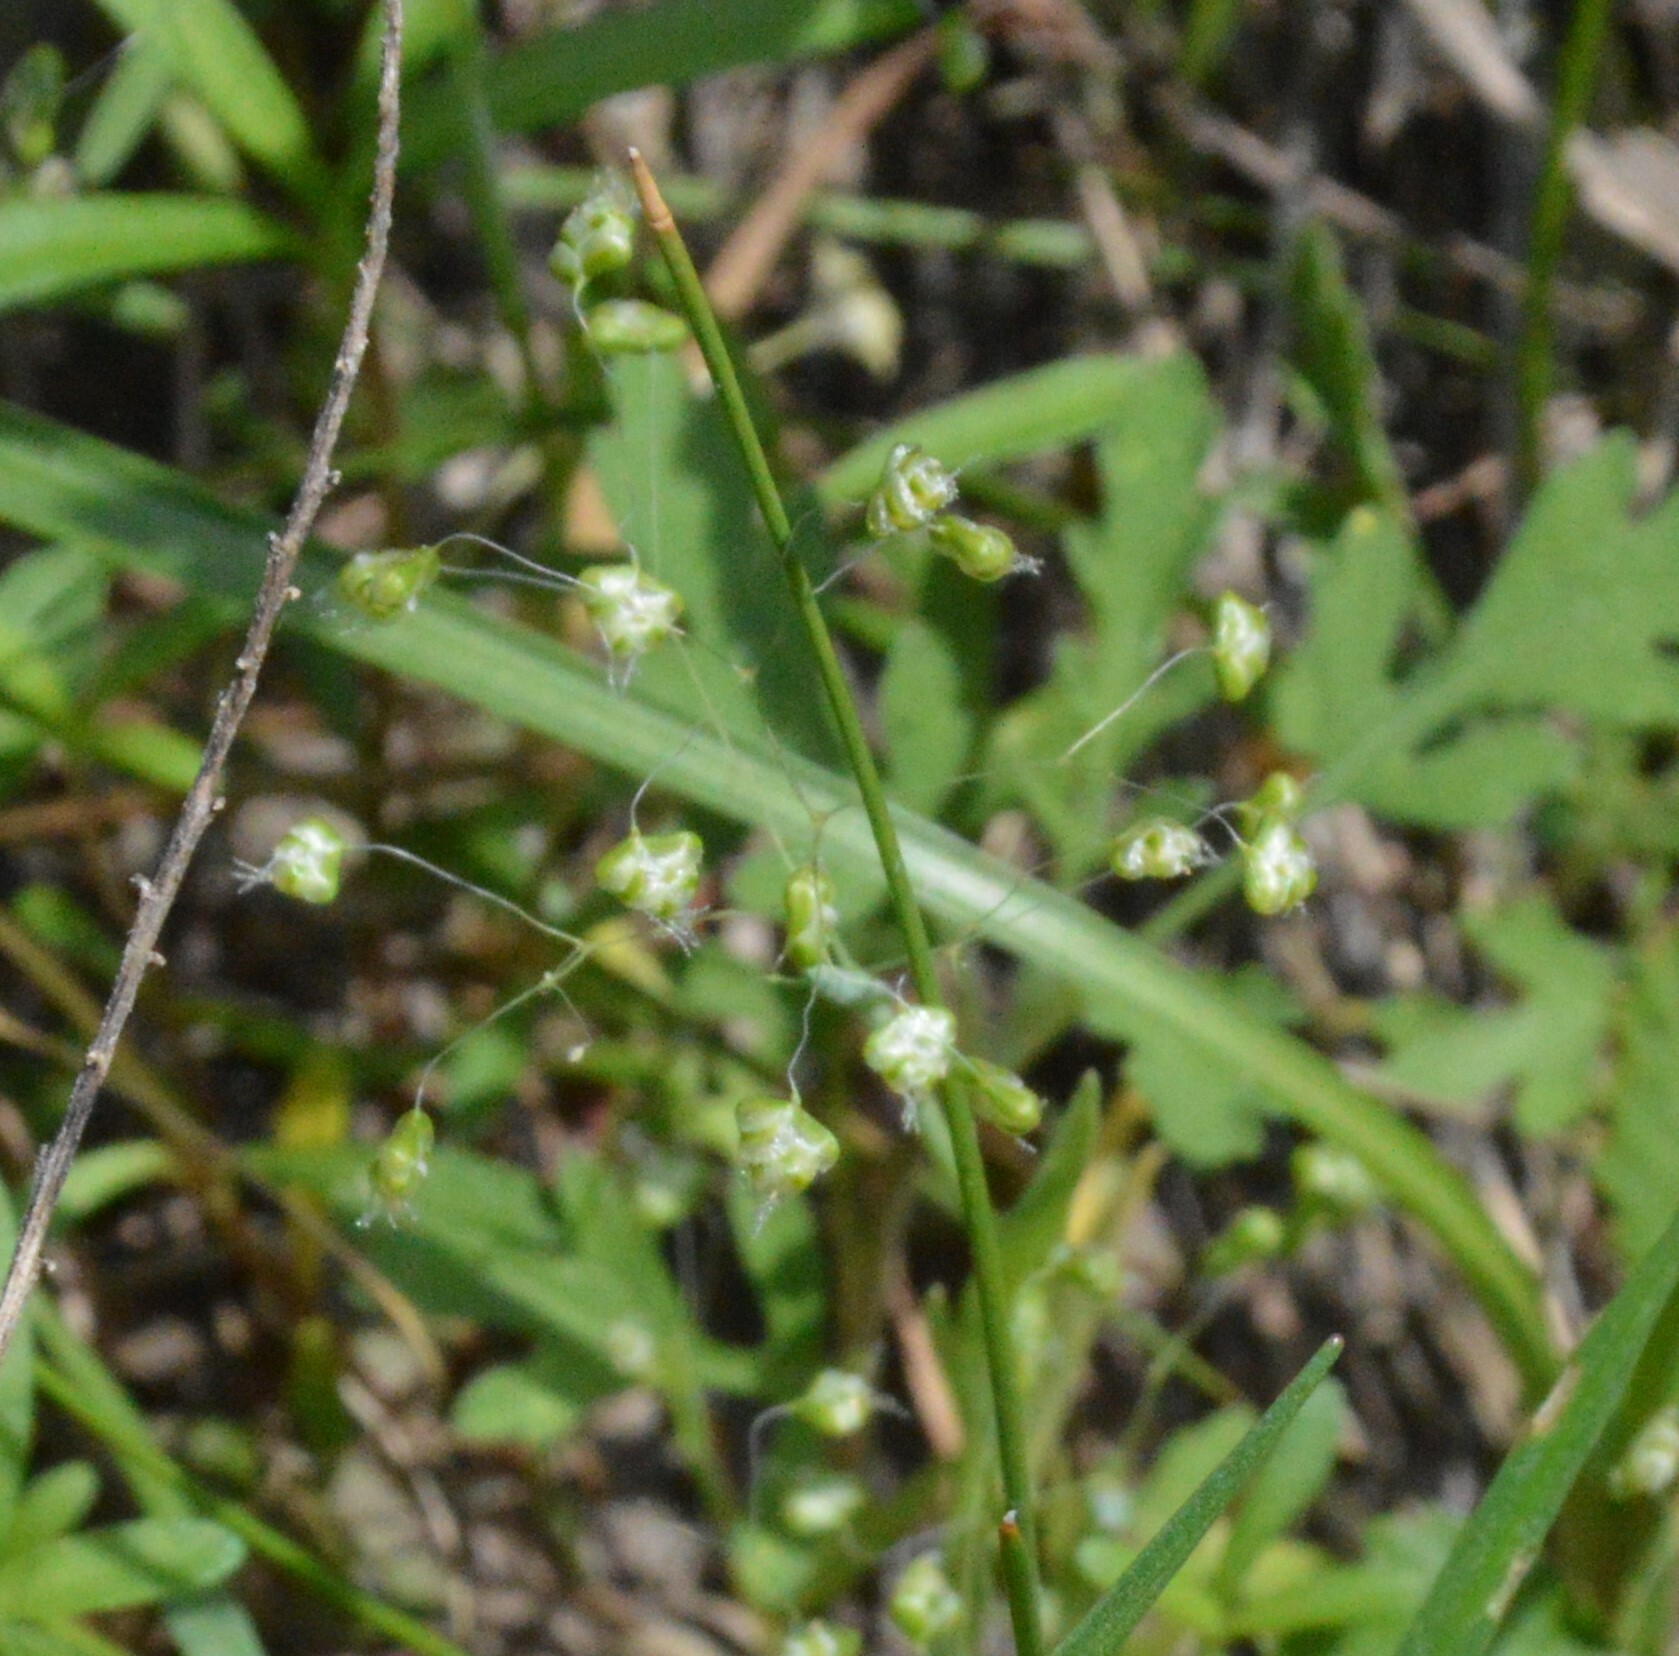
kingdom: Plantae
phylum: Tracheophyta
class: Liliopsida
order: Poales
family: Poaceae
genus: Briza
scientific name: Briza minor
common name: Lesser quaking-grass
